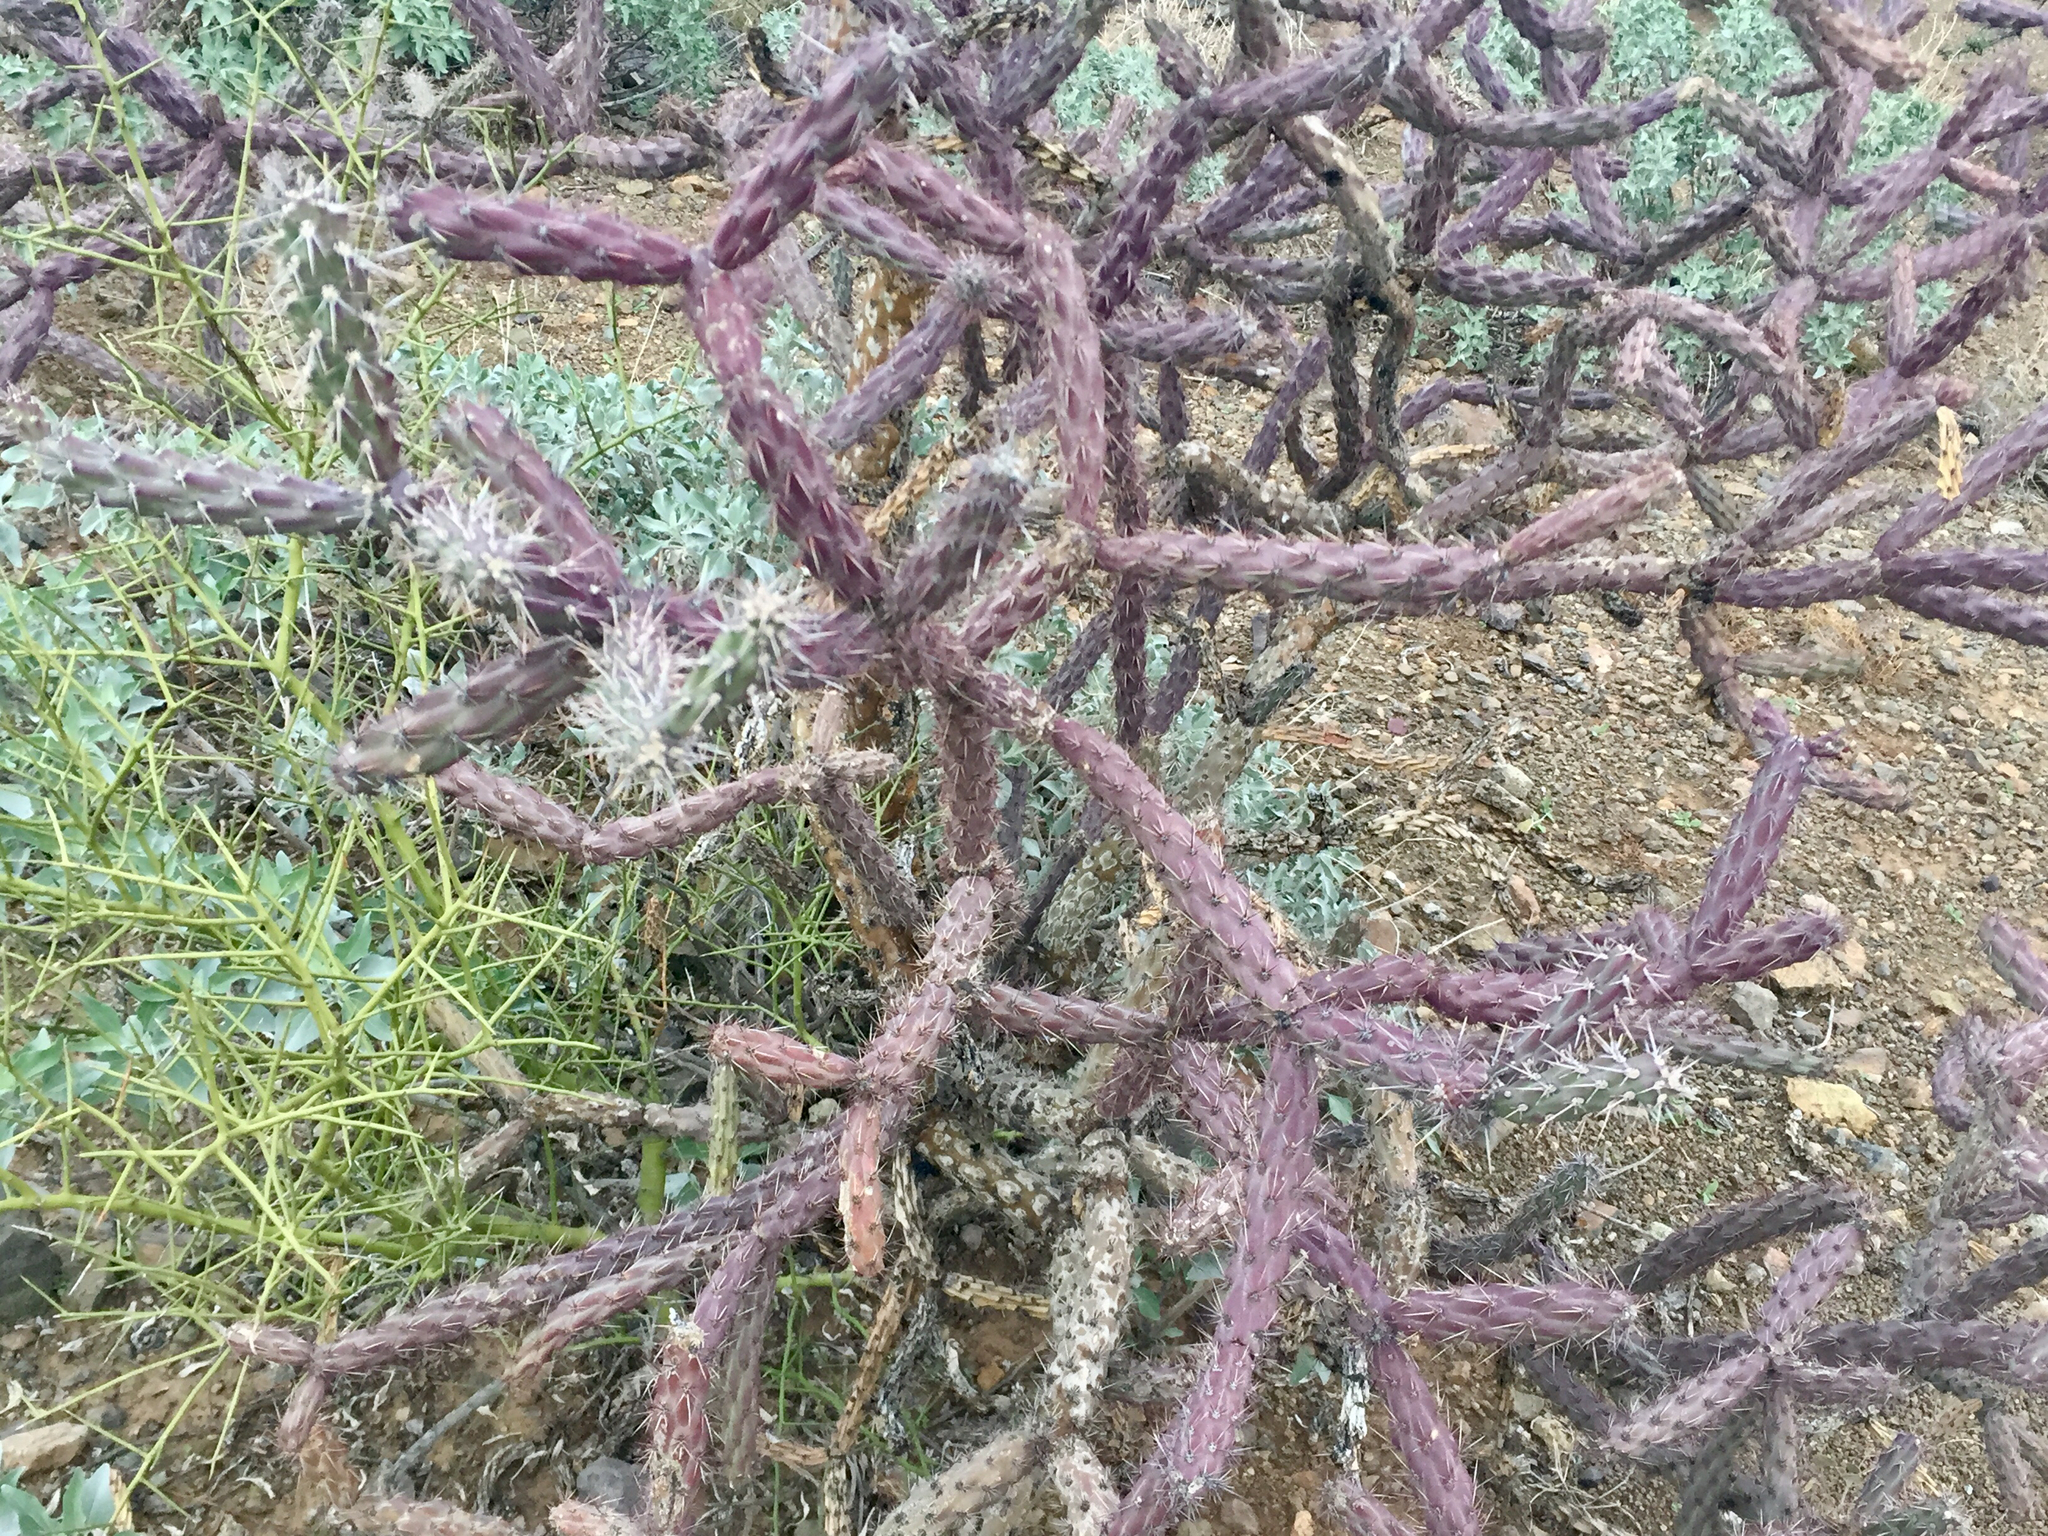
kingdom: Plantae
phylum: Tracheophyta
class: Magnoliopsida
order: Caryophyllales
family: Cactaceae
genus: Cylindropuntia
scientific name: Cylindropuntia thurberi
